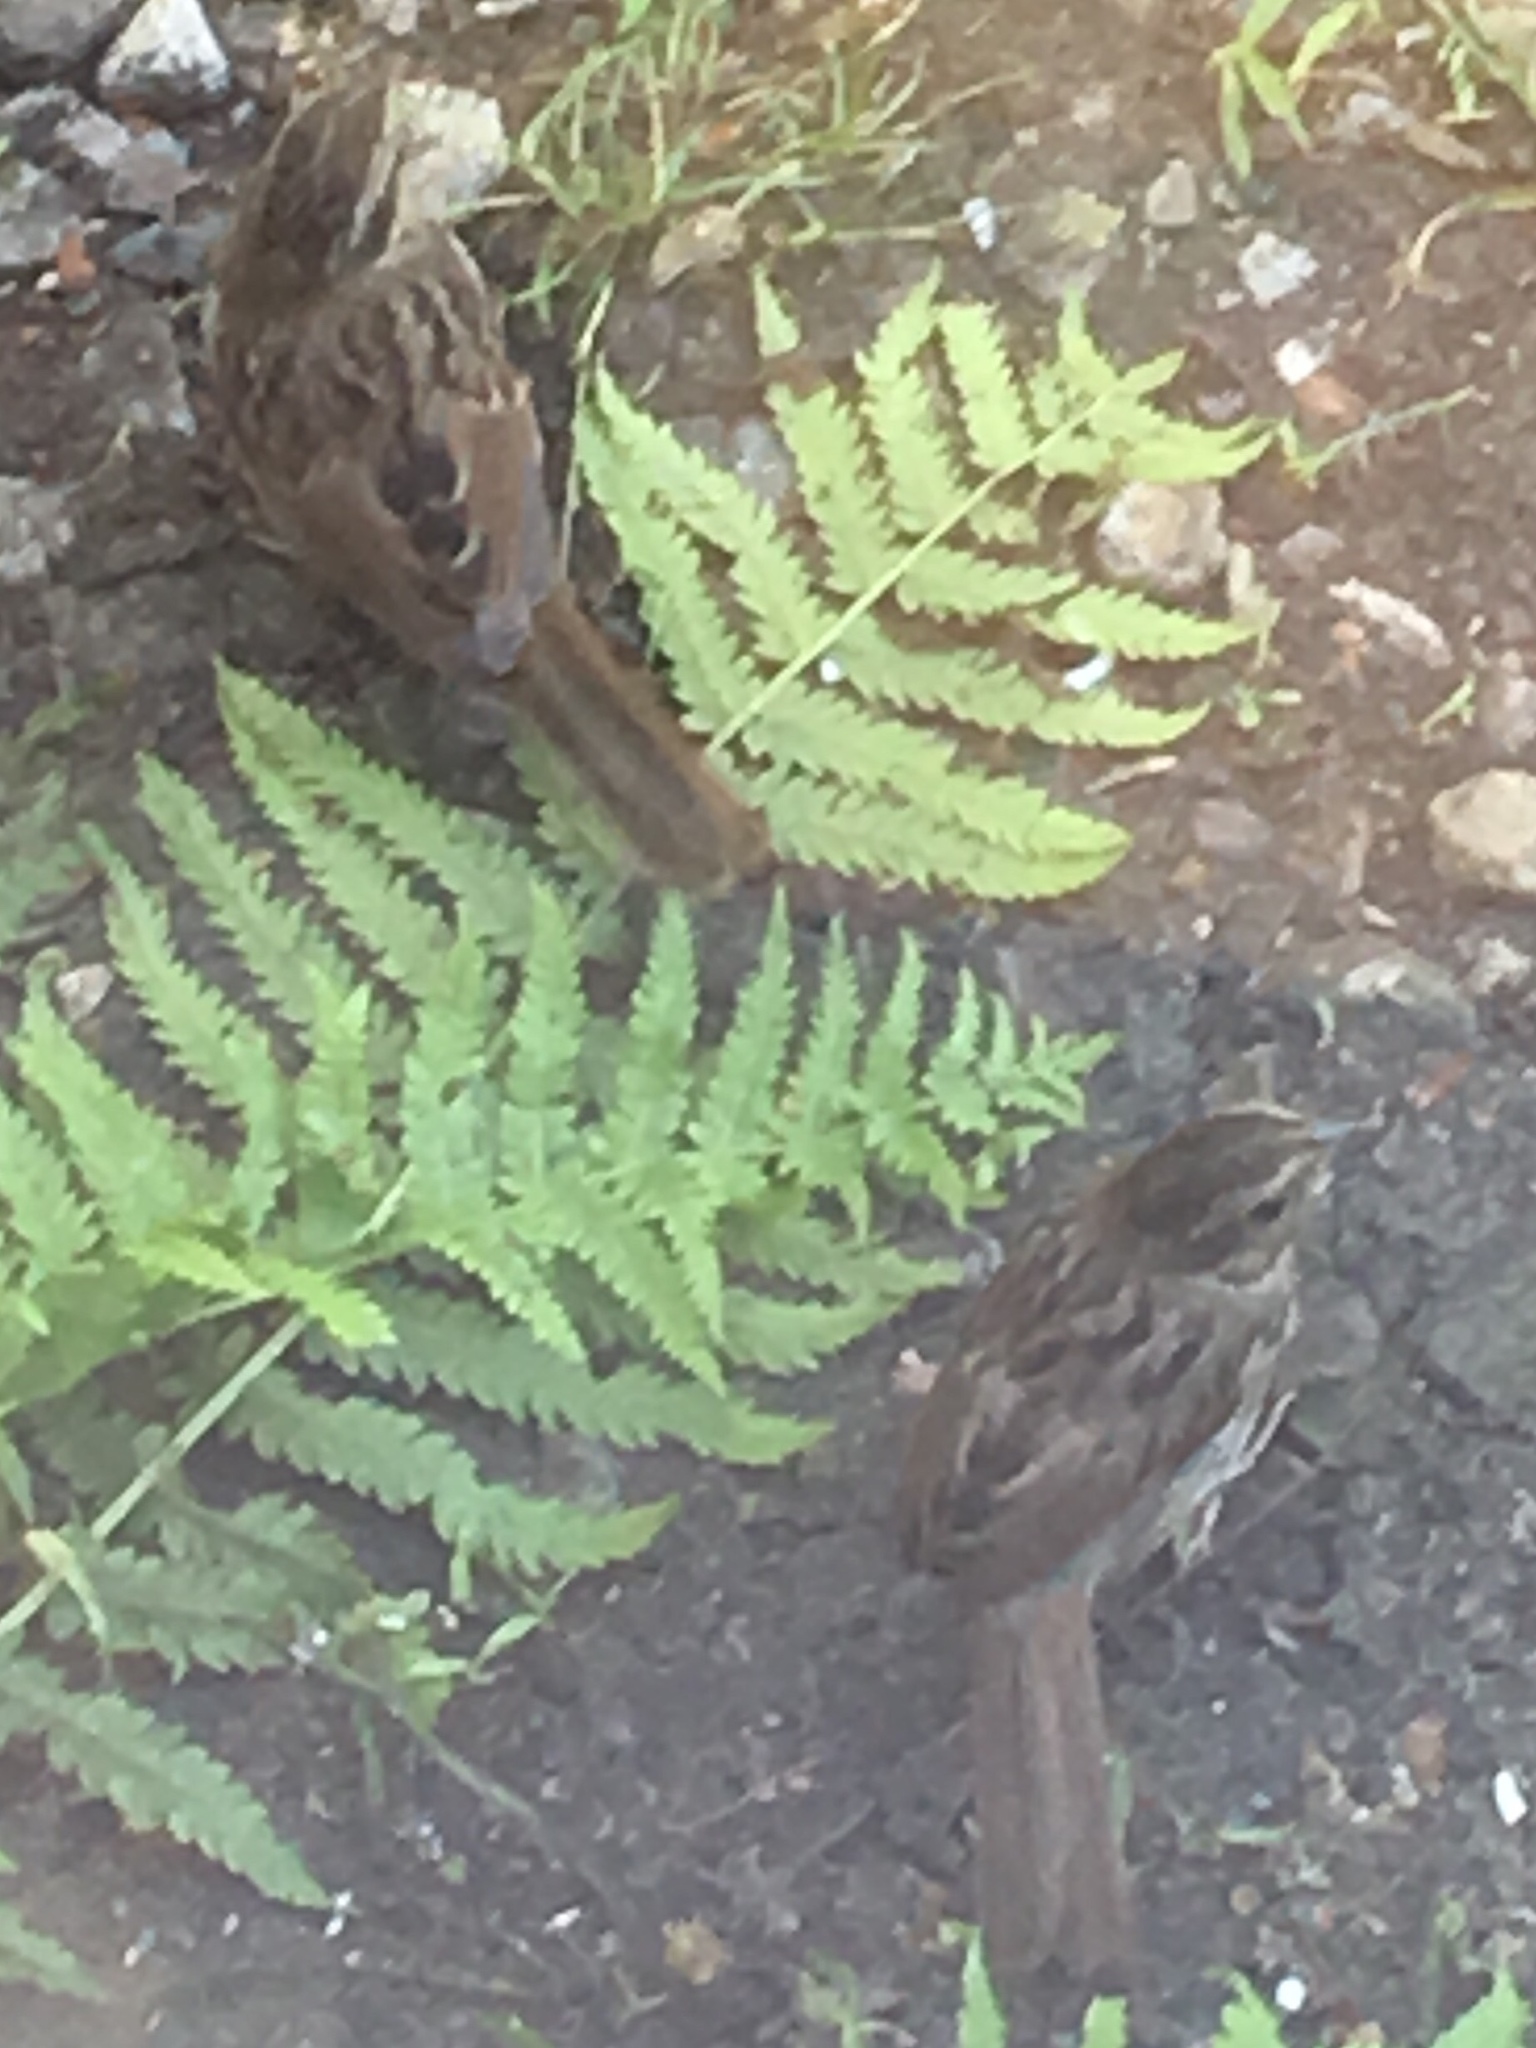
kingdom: Animalia
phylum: Chordata
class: Aves
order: Passeriformes
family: Passerellidae
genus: Melospiza
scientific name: Melospiza melodia
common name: Song sparrow
